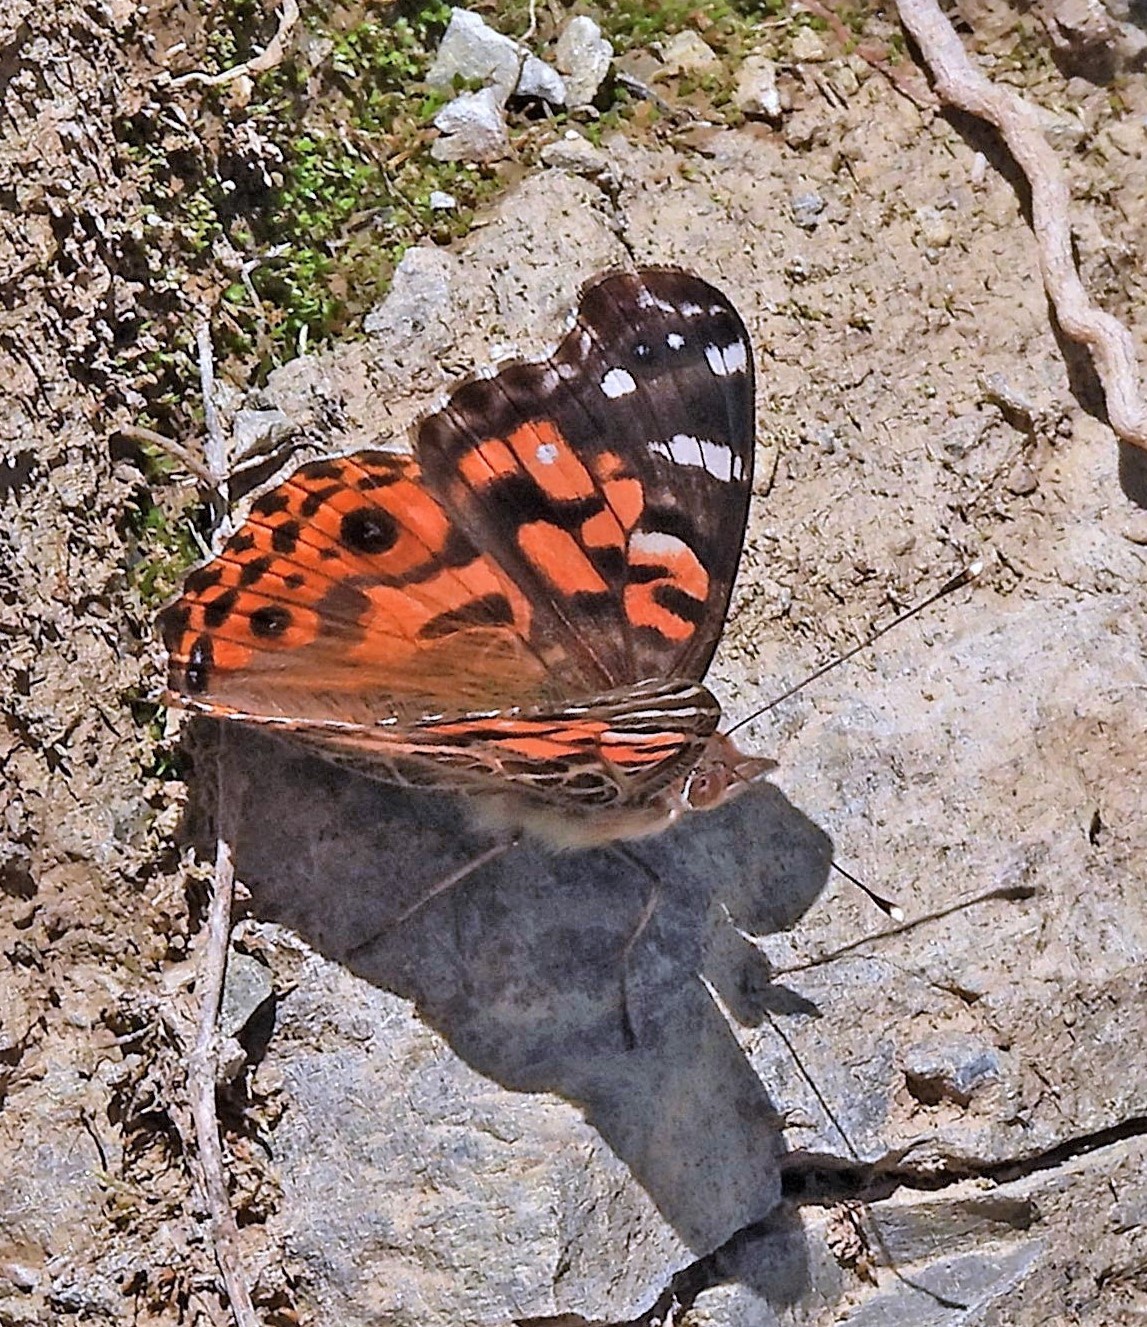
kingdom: Animalia
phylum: Arthropoda
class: Insecta
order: Lepidoptera
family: Nymphalidae
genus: Vanessa
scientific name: Vanessa braziliensis
